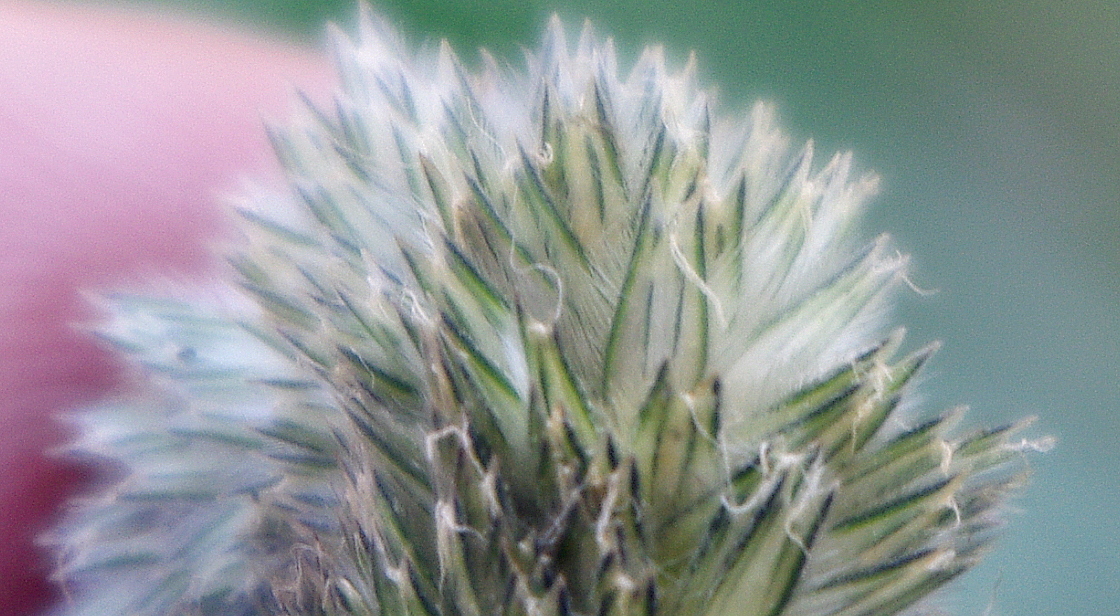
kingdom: Plantae
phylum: Tracheophyta
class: Liliopsida
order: Poales
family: Poaceae
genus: Phleum
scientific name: Phleum pratense
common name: Timothy grass
